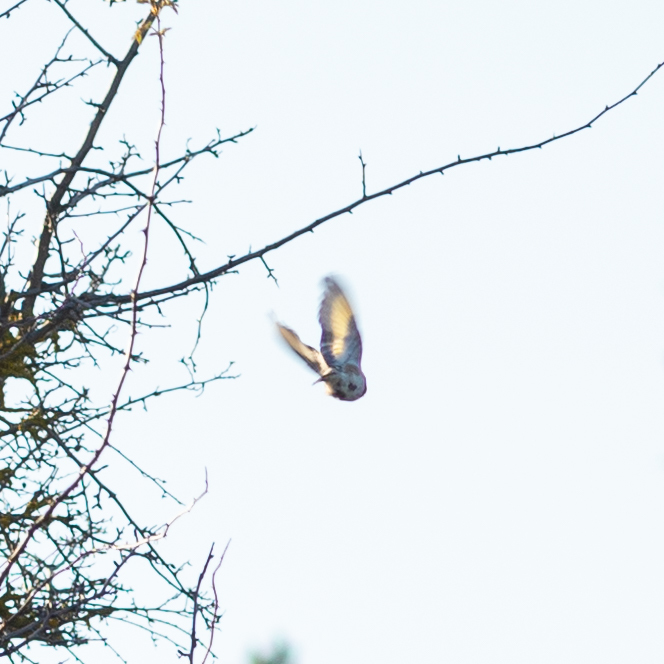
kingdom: Animalia
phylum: Chordata
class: Aves
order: Passeriformes
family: Fringillidae
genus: Carduelis
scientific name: Carduelis carduelis
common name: European goldfinch
